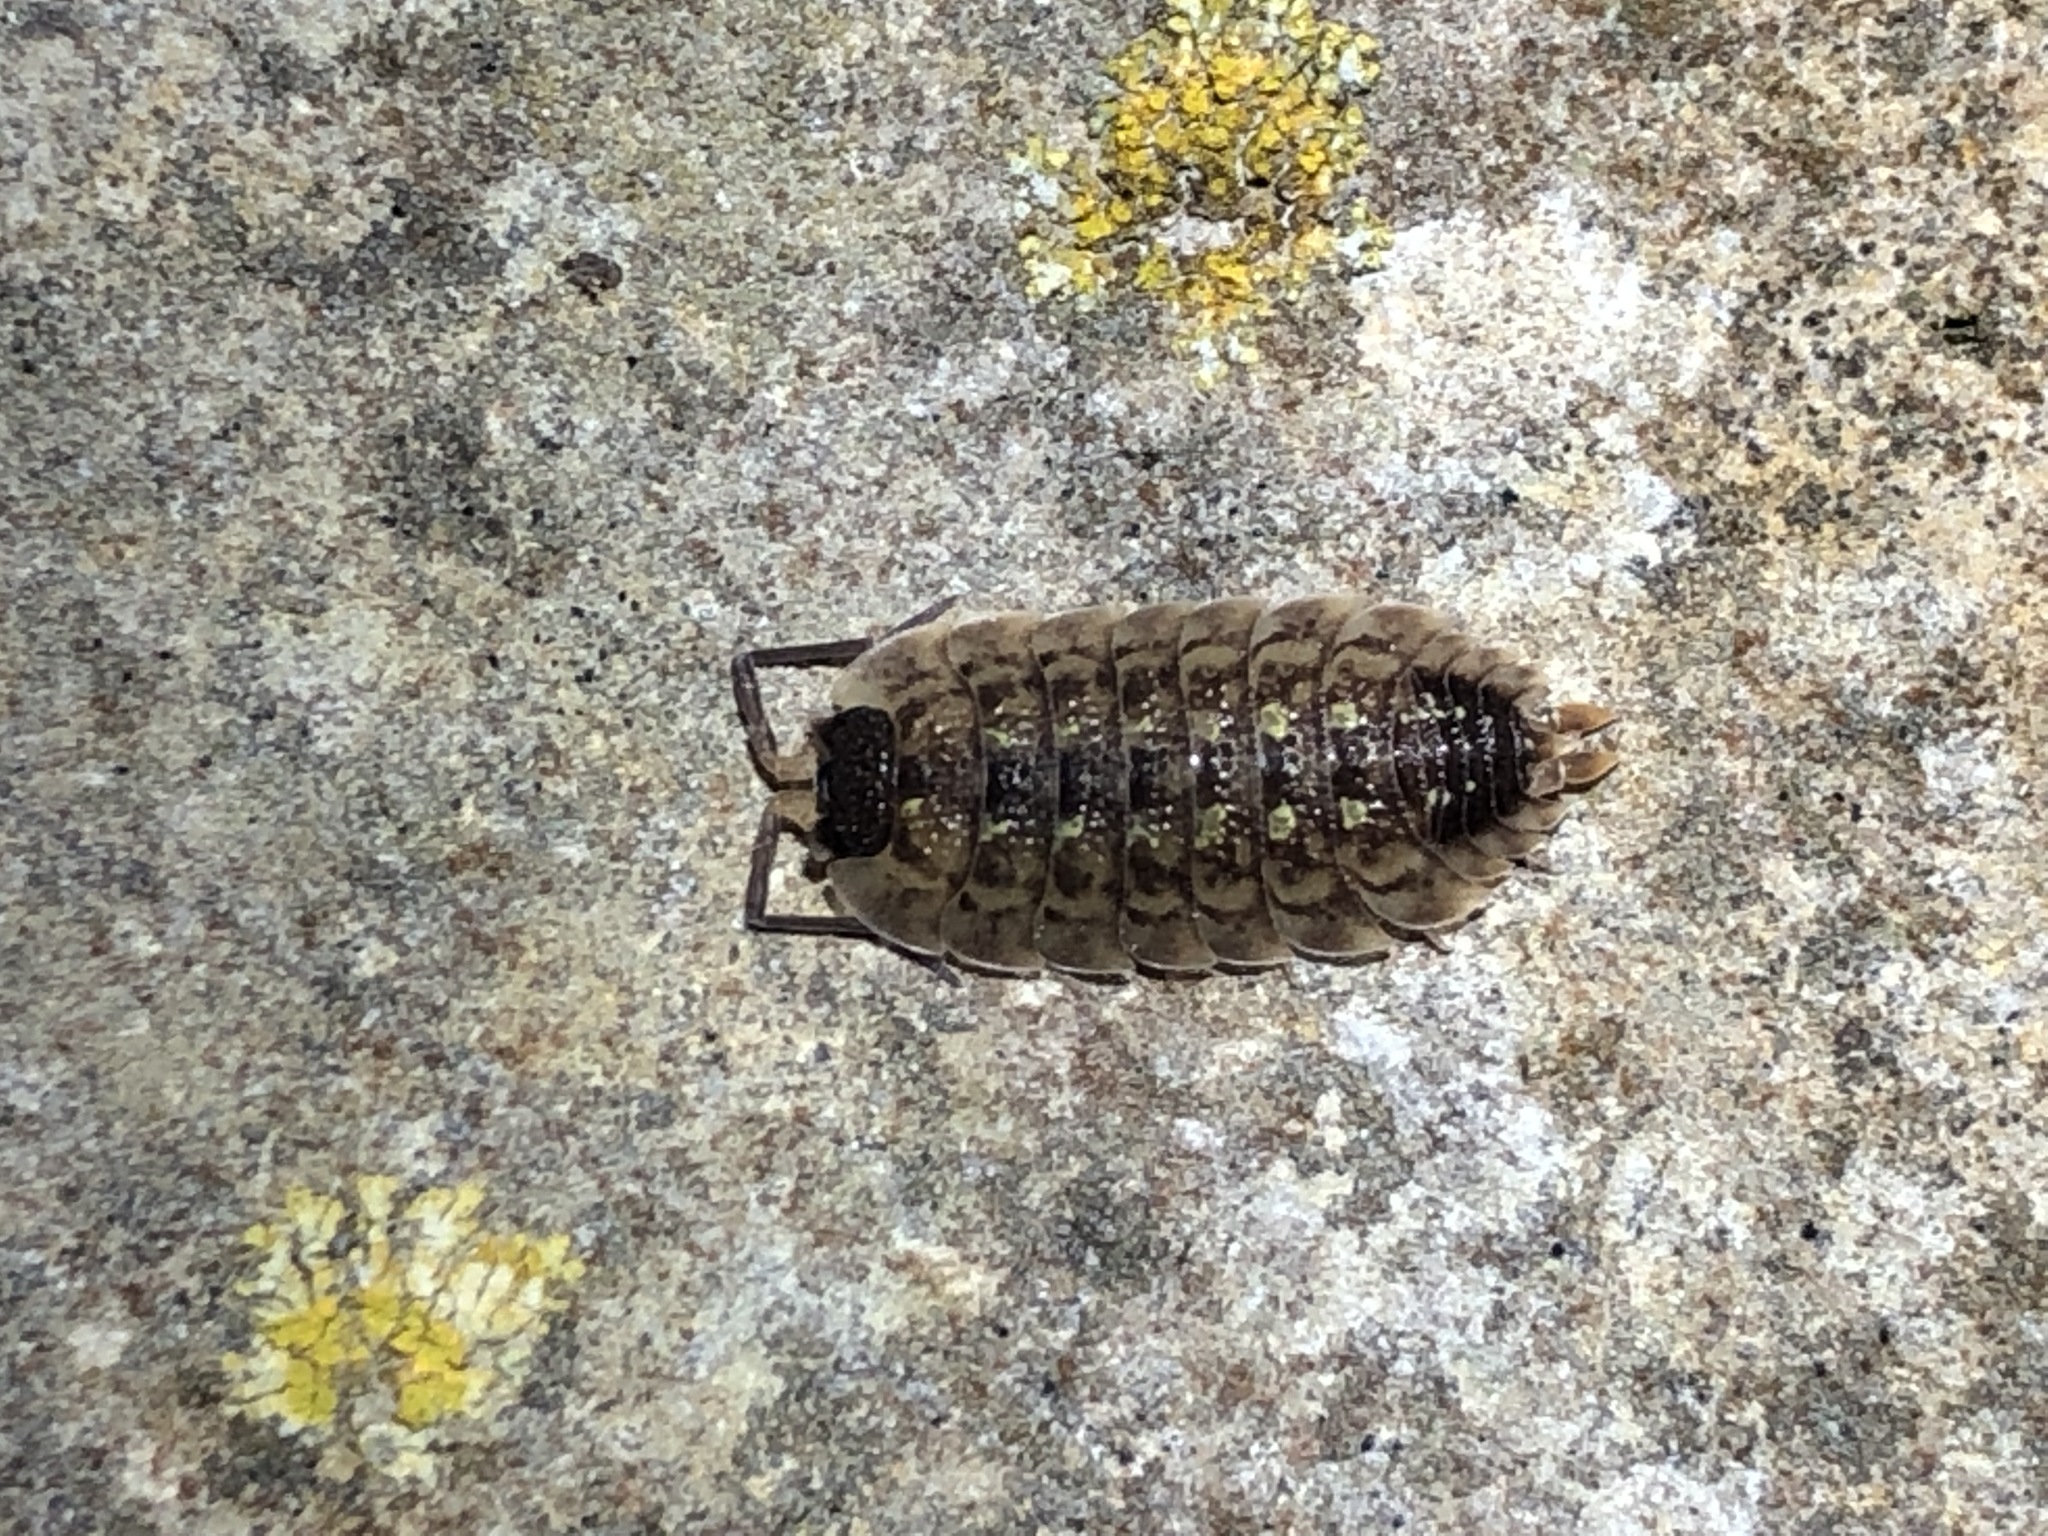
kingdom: Animalia
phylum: Arthropoda
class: Malacostraca
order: Isopoda
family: Porcellionidae
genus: Porcellio
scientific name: Porcellio spinicornis
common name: Painted woodlouse
